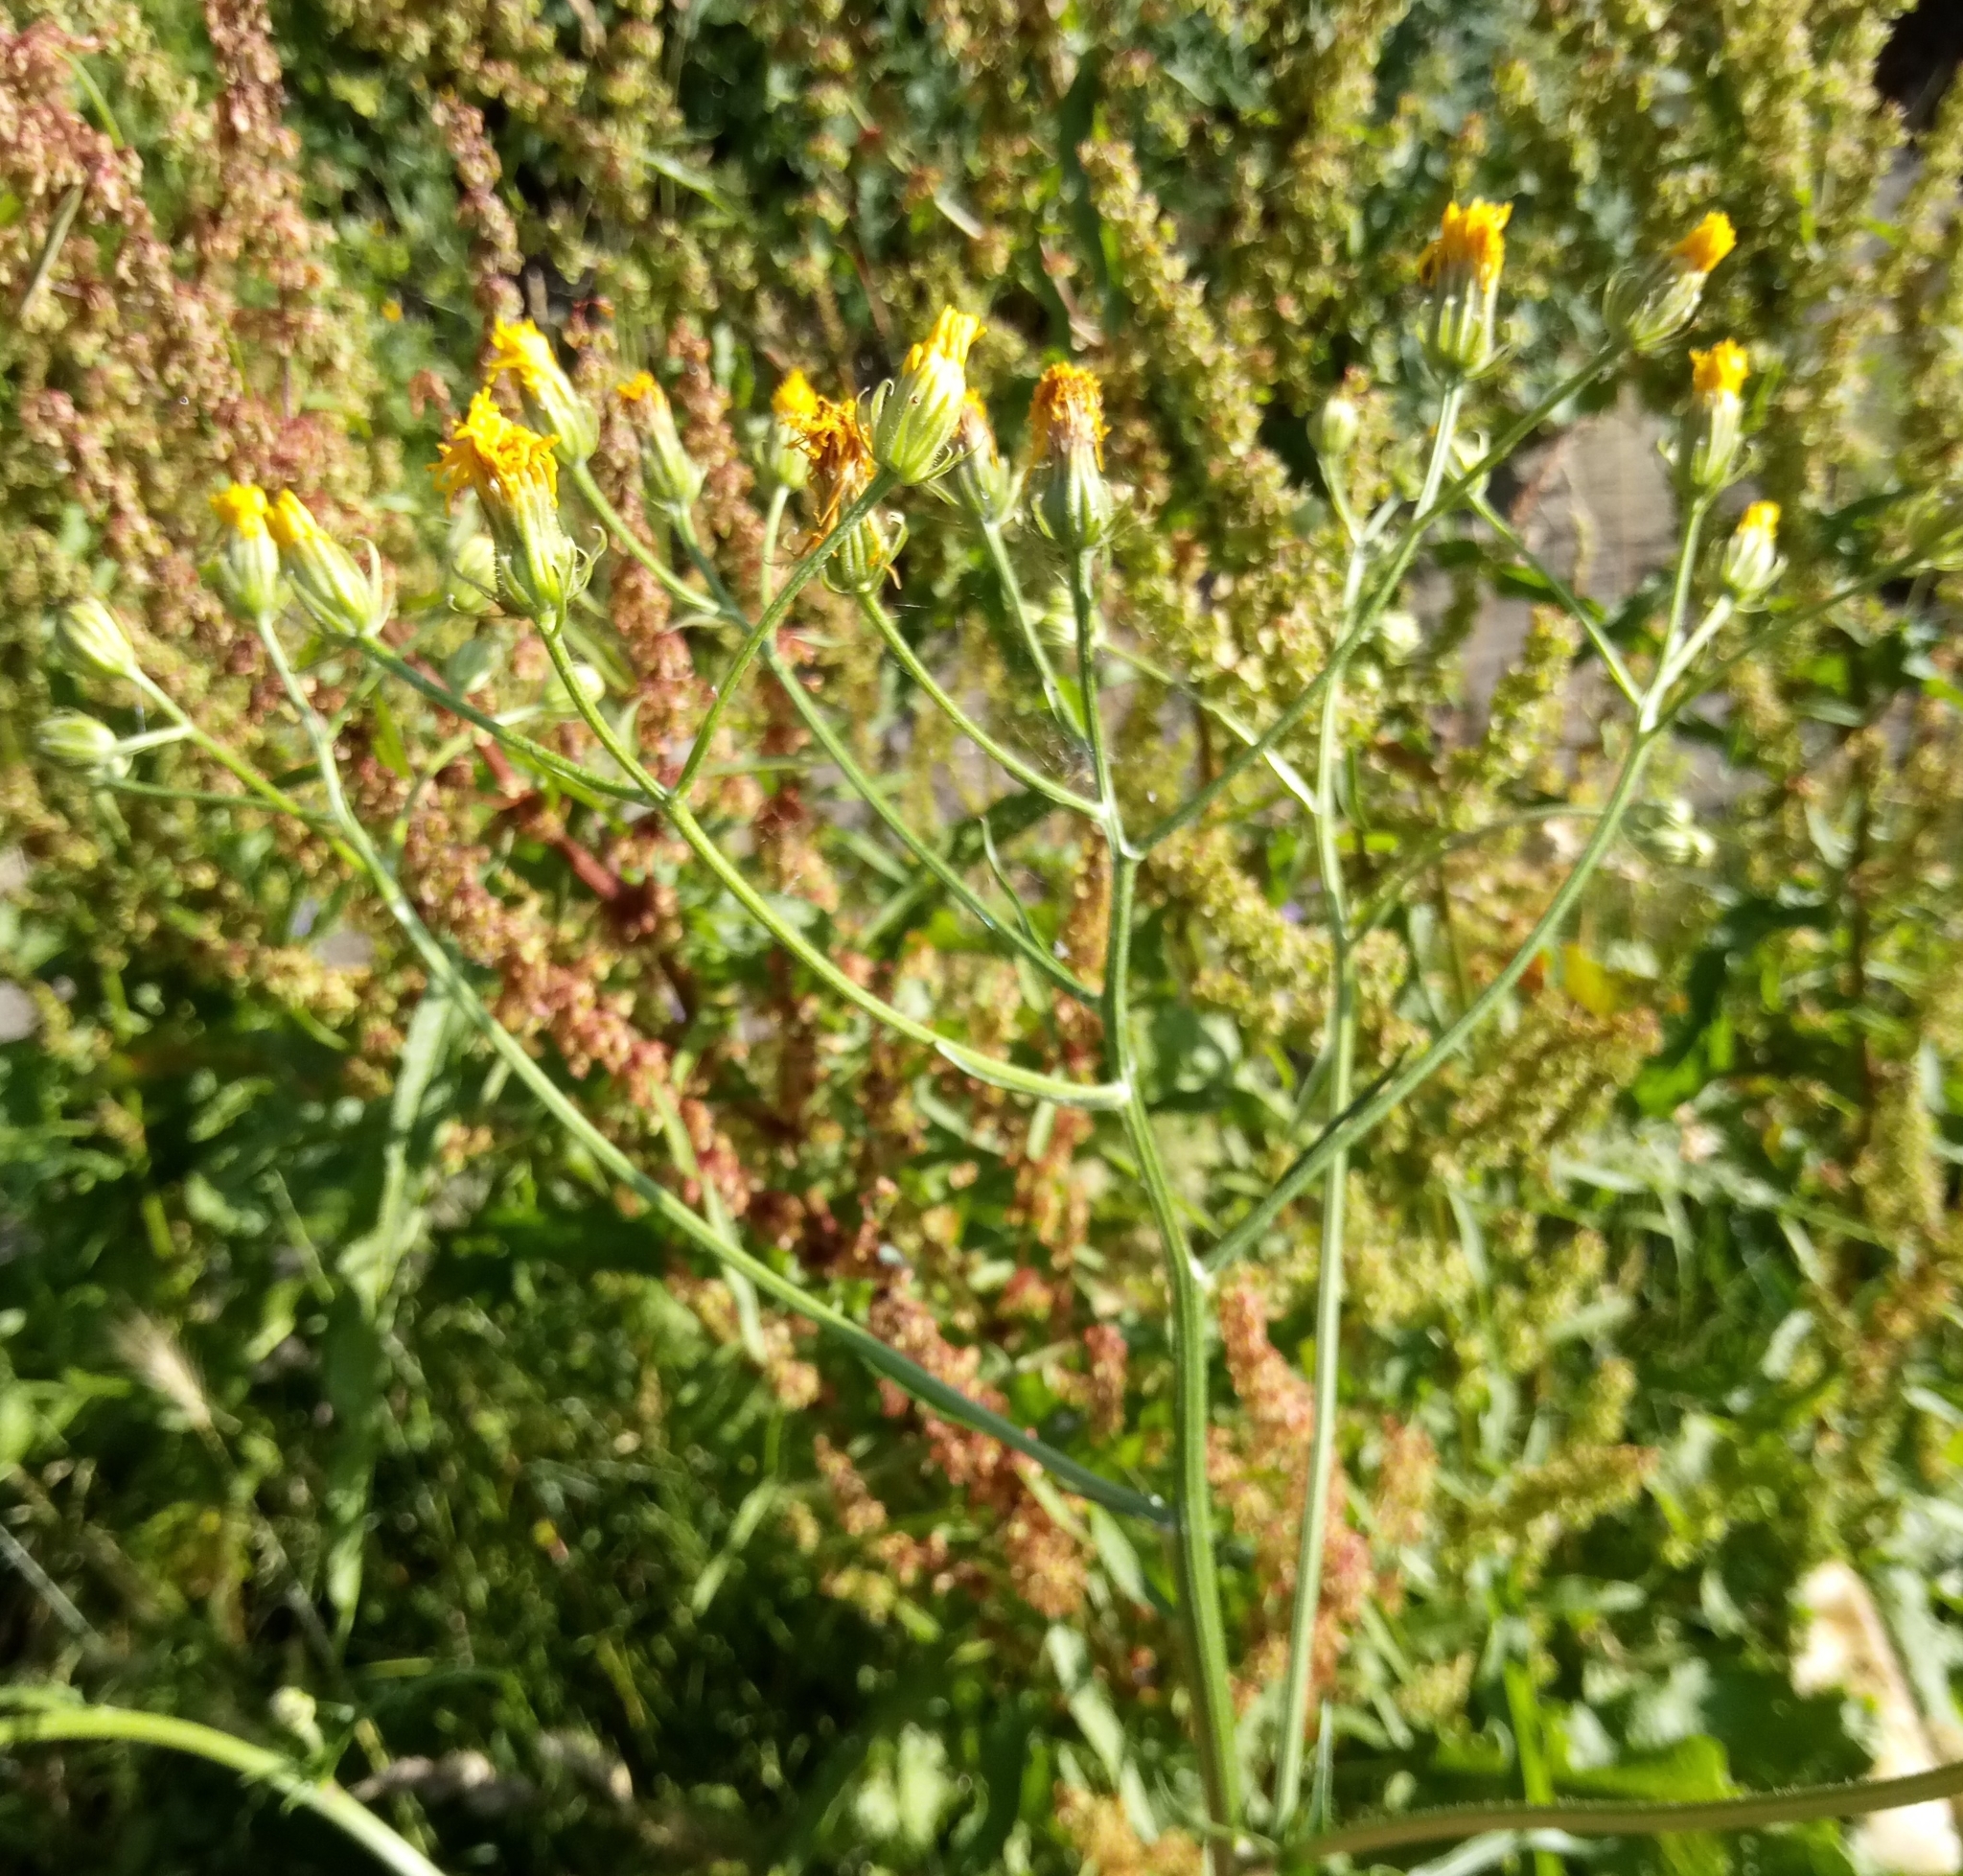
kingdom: Plantae
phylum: Tracheophyta
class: Magnoliopsida
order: Asterales
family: Asteraceae
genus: Crepis
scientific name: Crepis biennis
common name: Rough hawk's-beard
